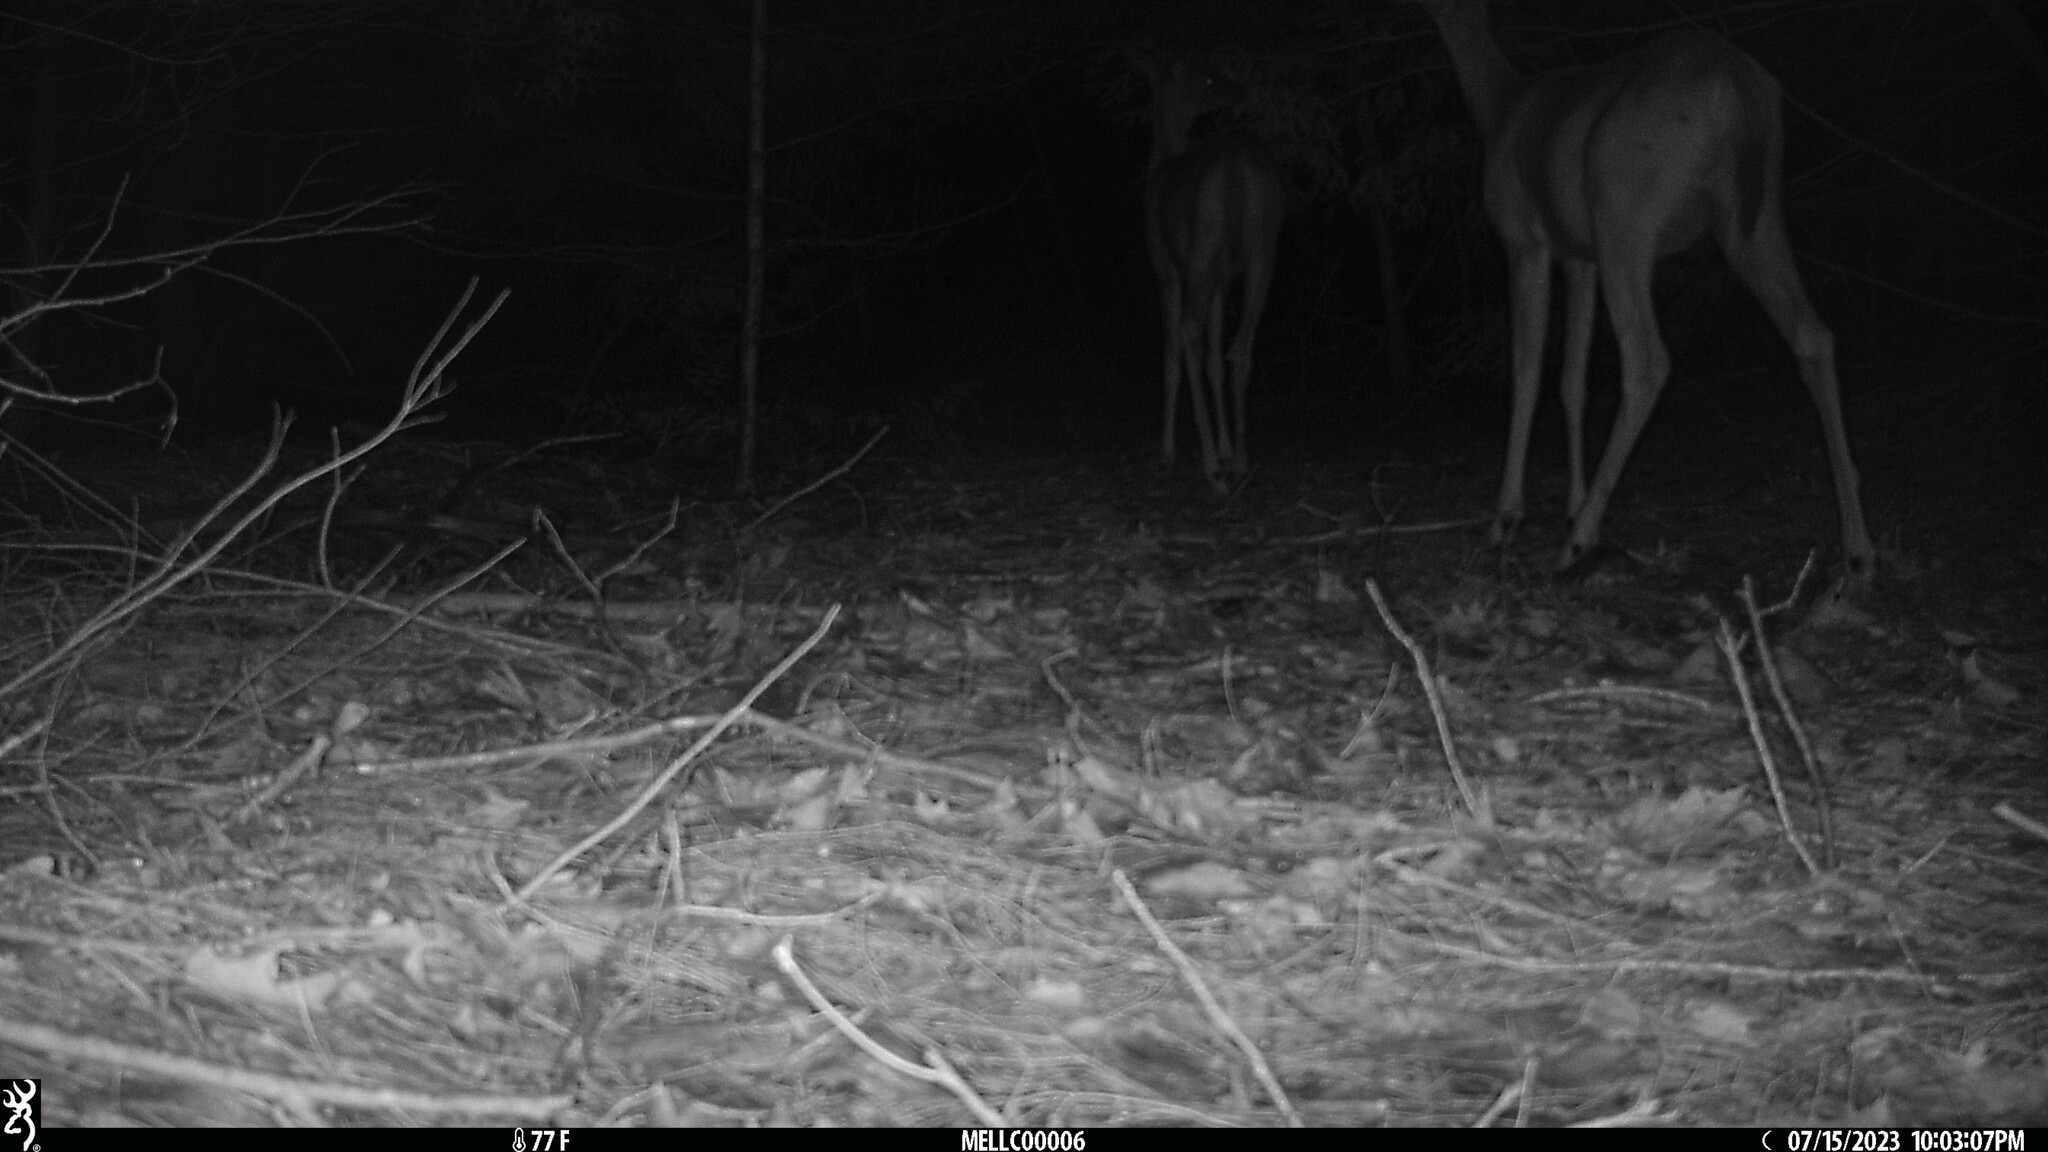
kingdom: Animalia
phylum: Chordata
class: Mammalia
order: Artiodactyla
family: Cervidae
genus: Odocoileus
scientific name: Odocoileus virginianus
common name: White-tailed deer
